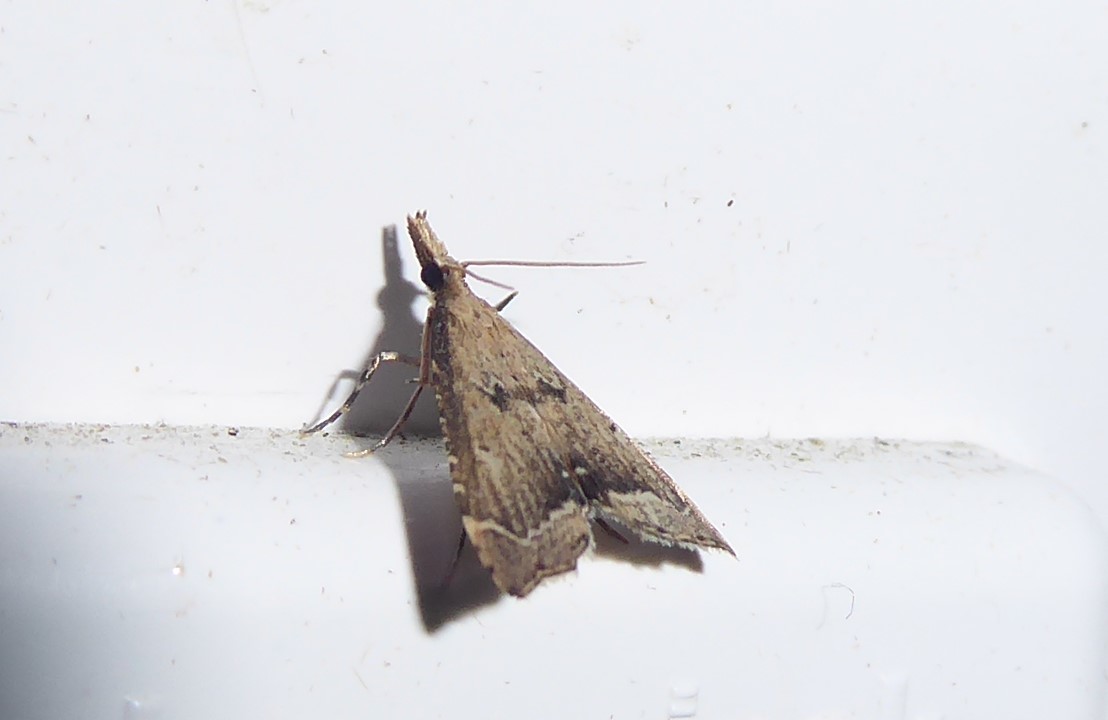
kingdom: Animalia
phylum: Arthropoda
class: Insecta
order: Lepidoptera
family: Crambidae
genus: Diplopseustis
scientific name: Diplopseustis perieresalis
